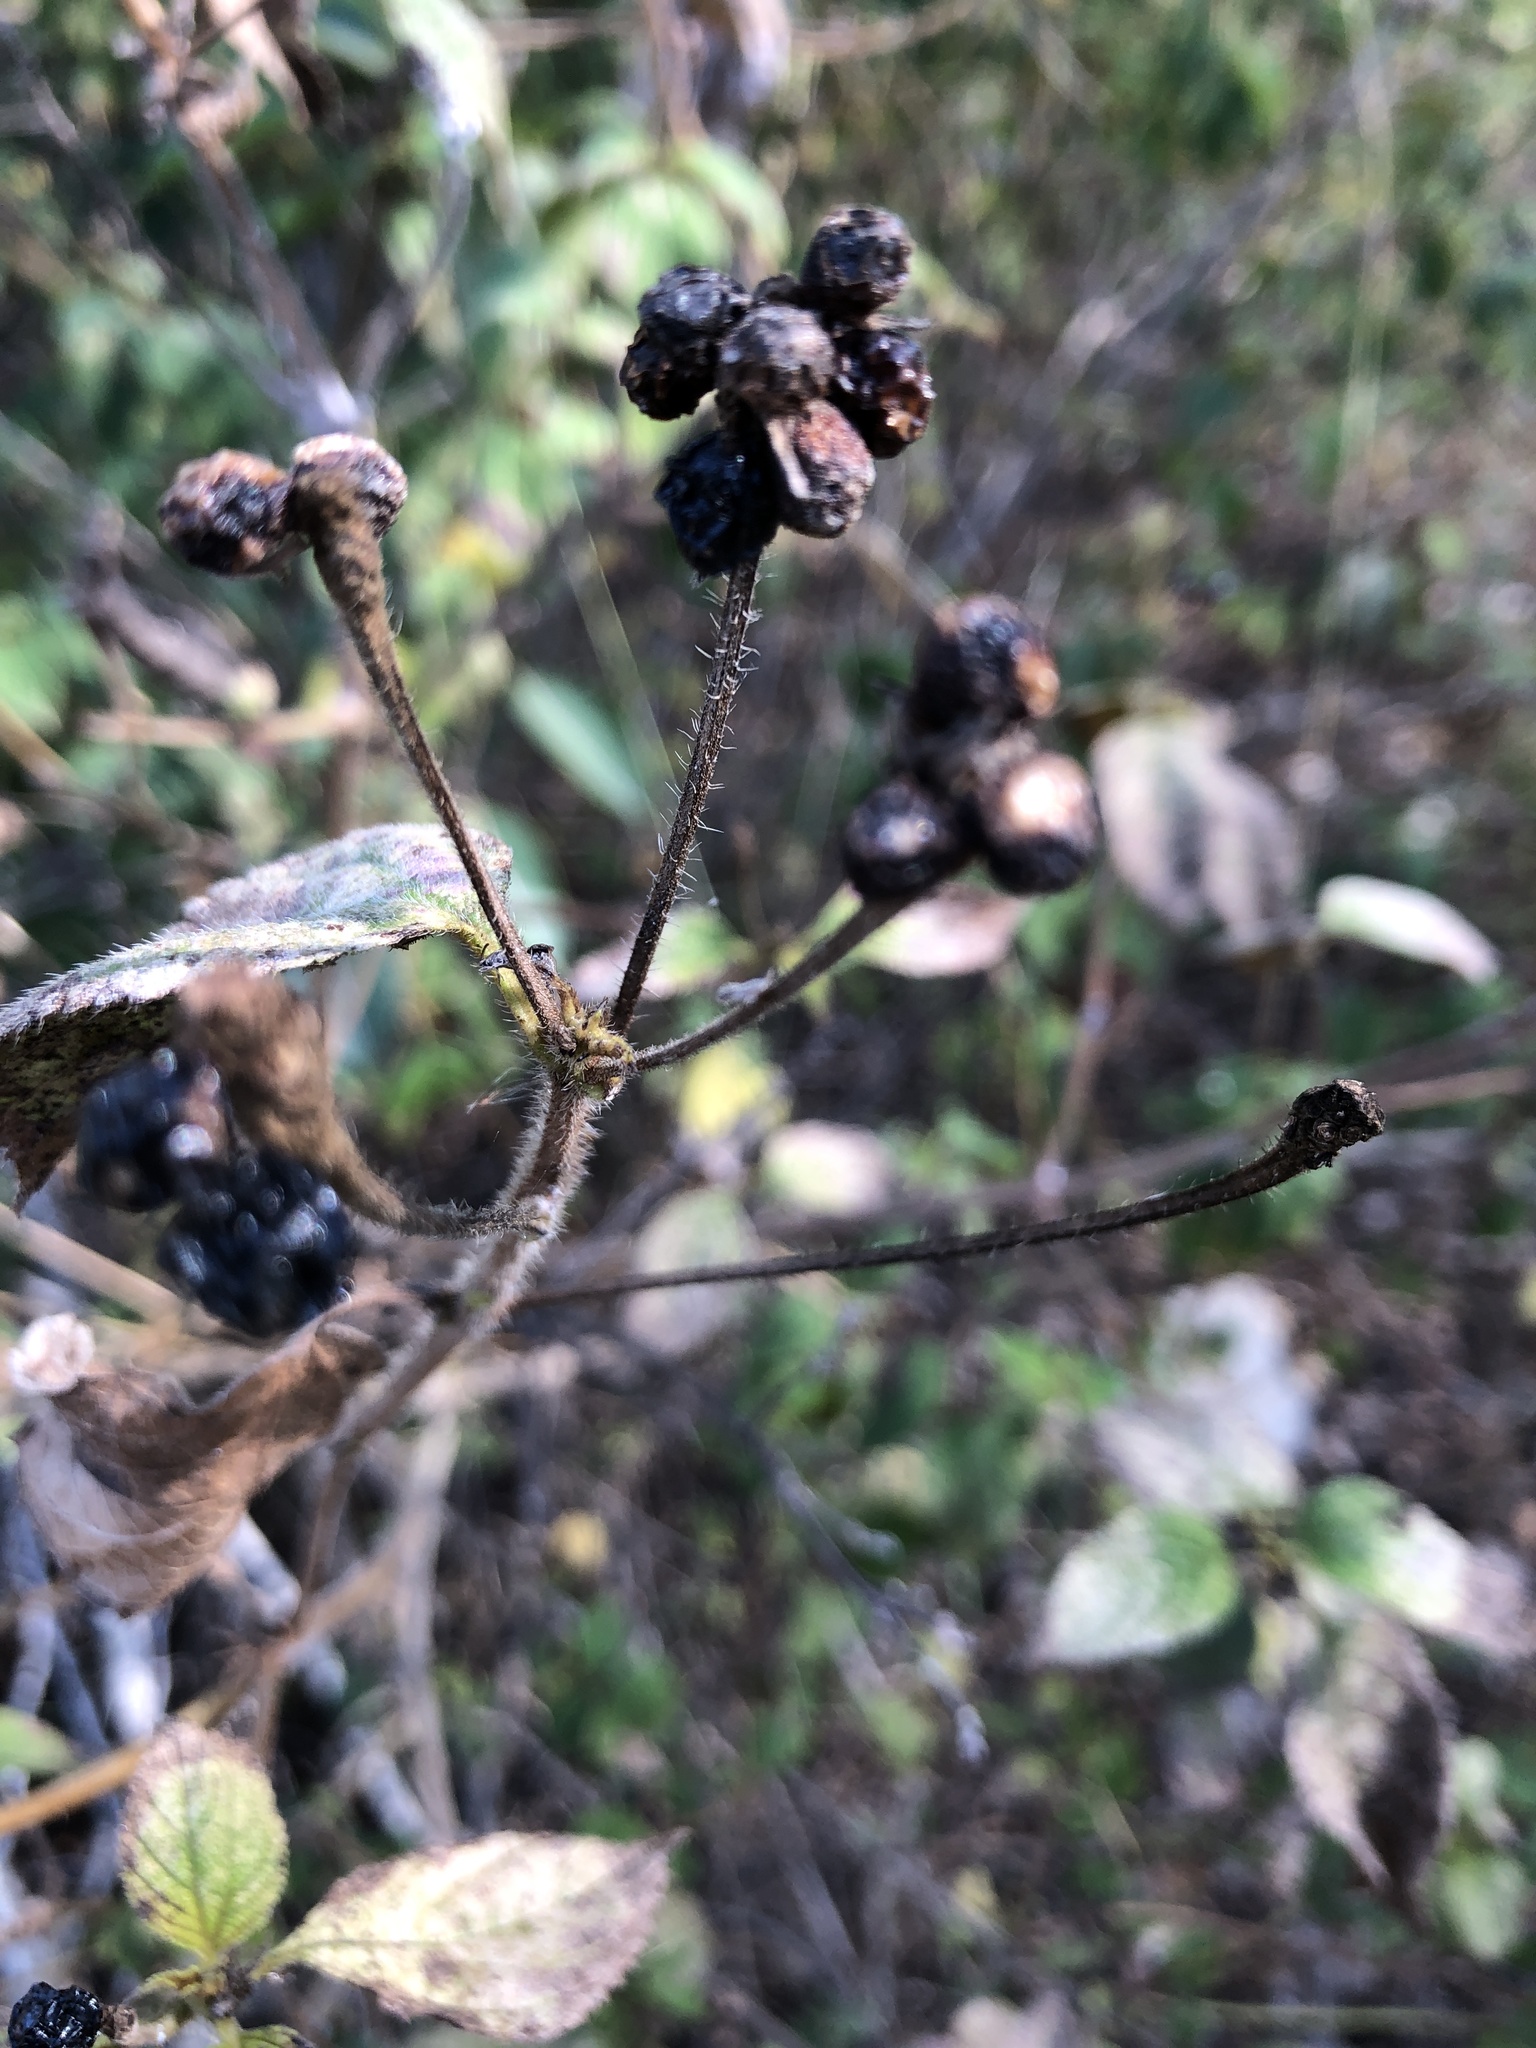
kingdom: Plantae
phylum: Tracheophyta
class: Magnoliopsida
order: Lamiales
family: Verbenaceae
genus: Lantana
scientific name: Lantana camara
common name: Lantana
